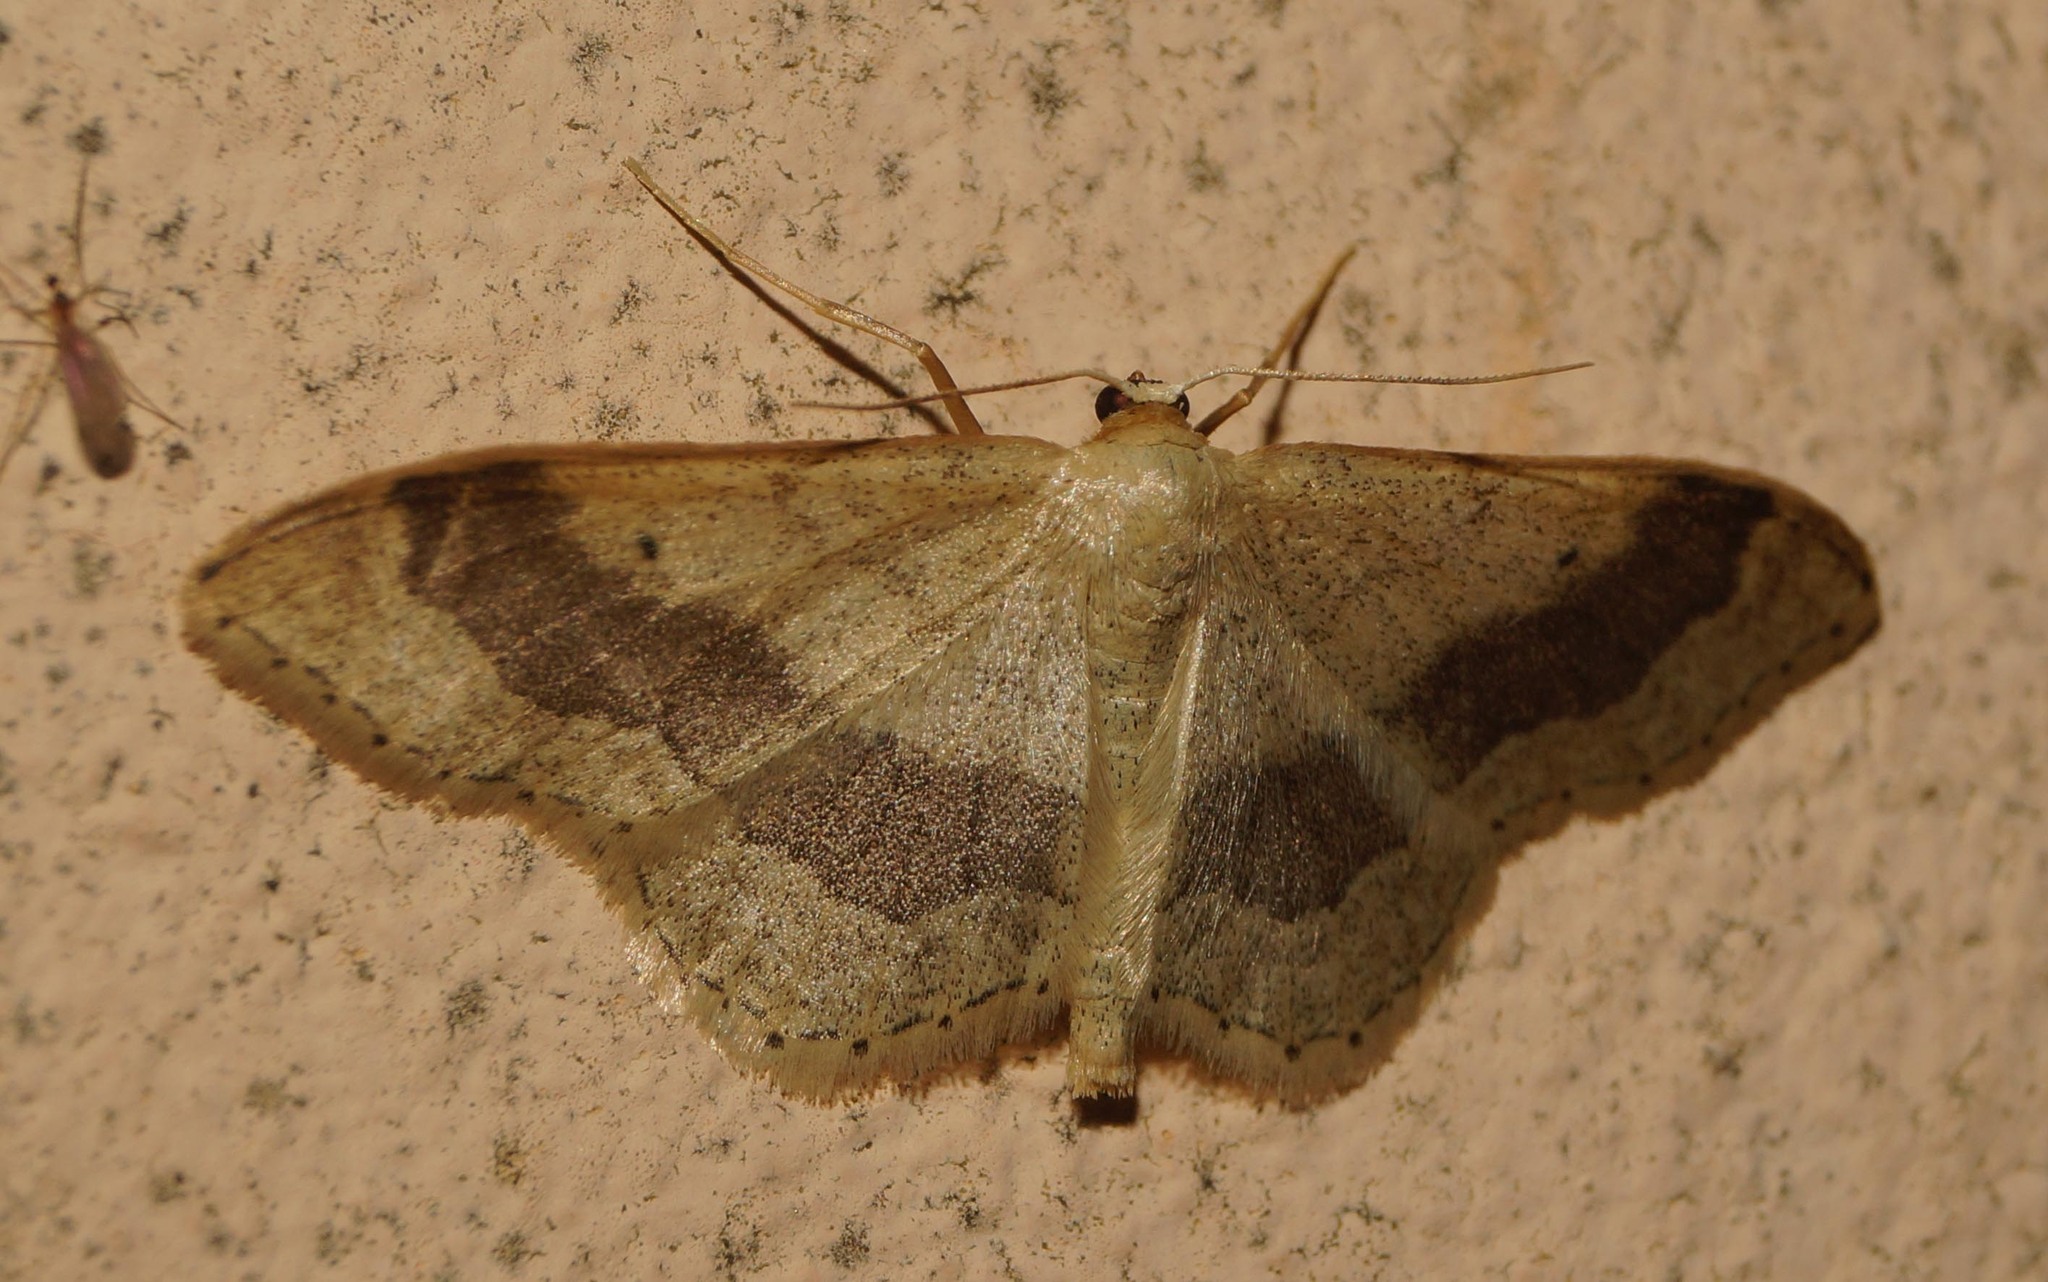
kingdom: Animalia
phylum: Arthropoda
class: Insecta
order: Lepidoptera
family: Geometridae
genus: Idaea
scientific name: Idaea aversata
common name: Riband wave
